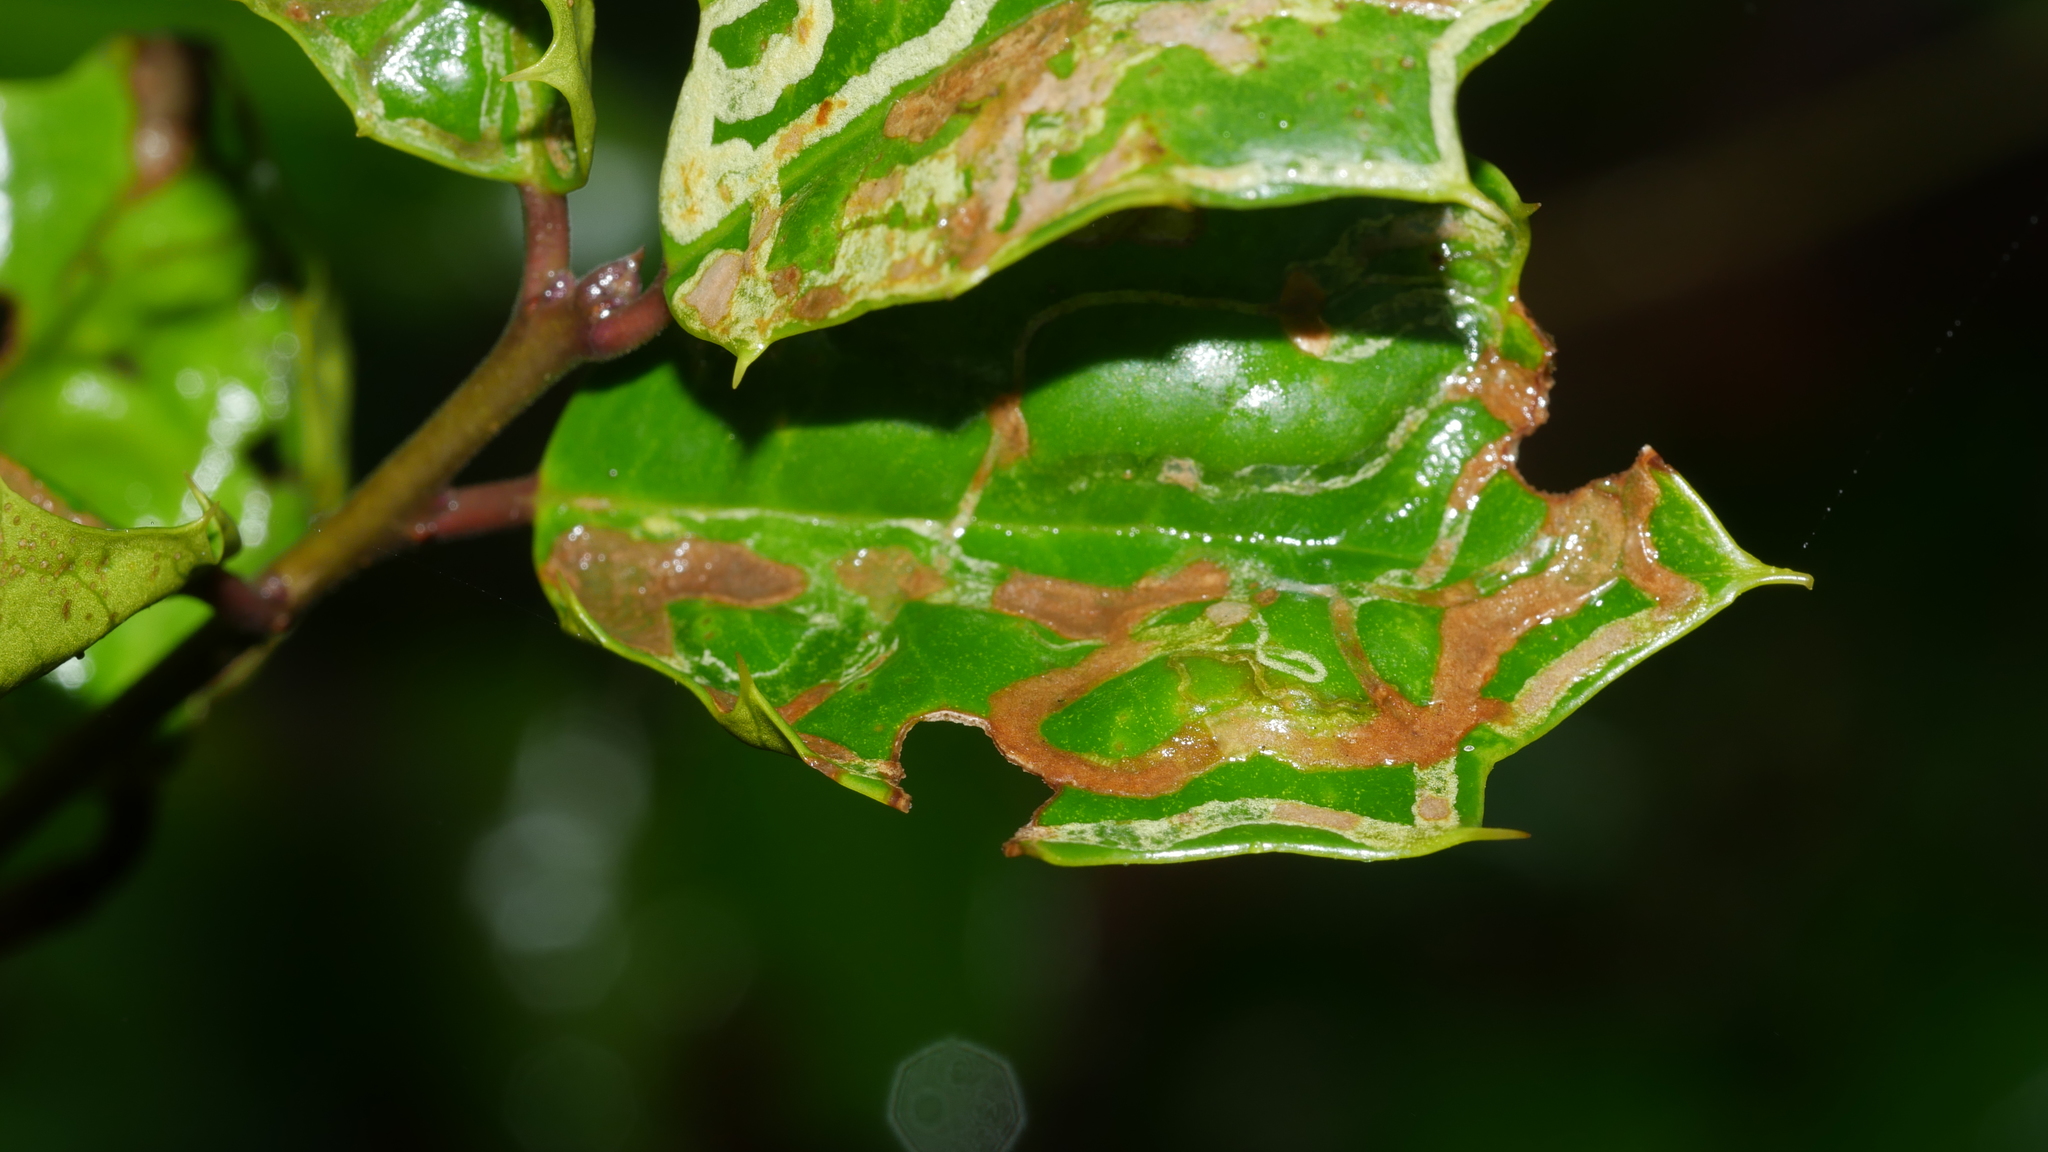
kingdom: Animalia
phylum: Arthropoda
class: Insecta
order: Diptera
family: Agromyzidae
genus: Phytomyza
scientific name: Phytomyza opacae
